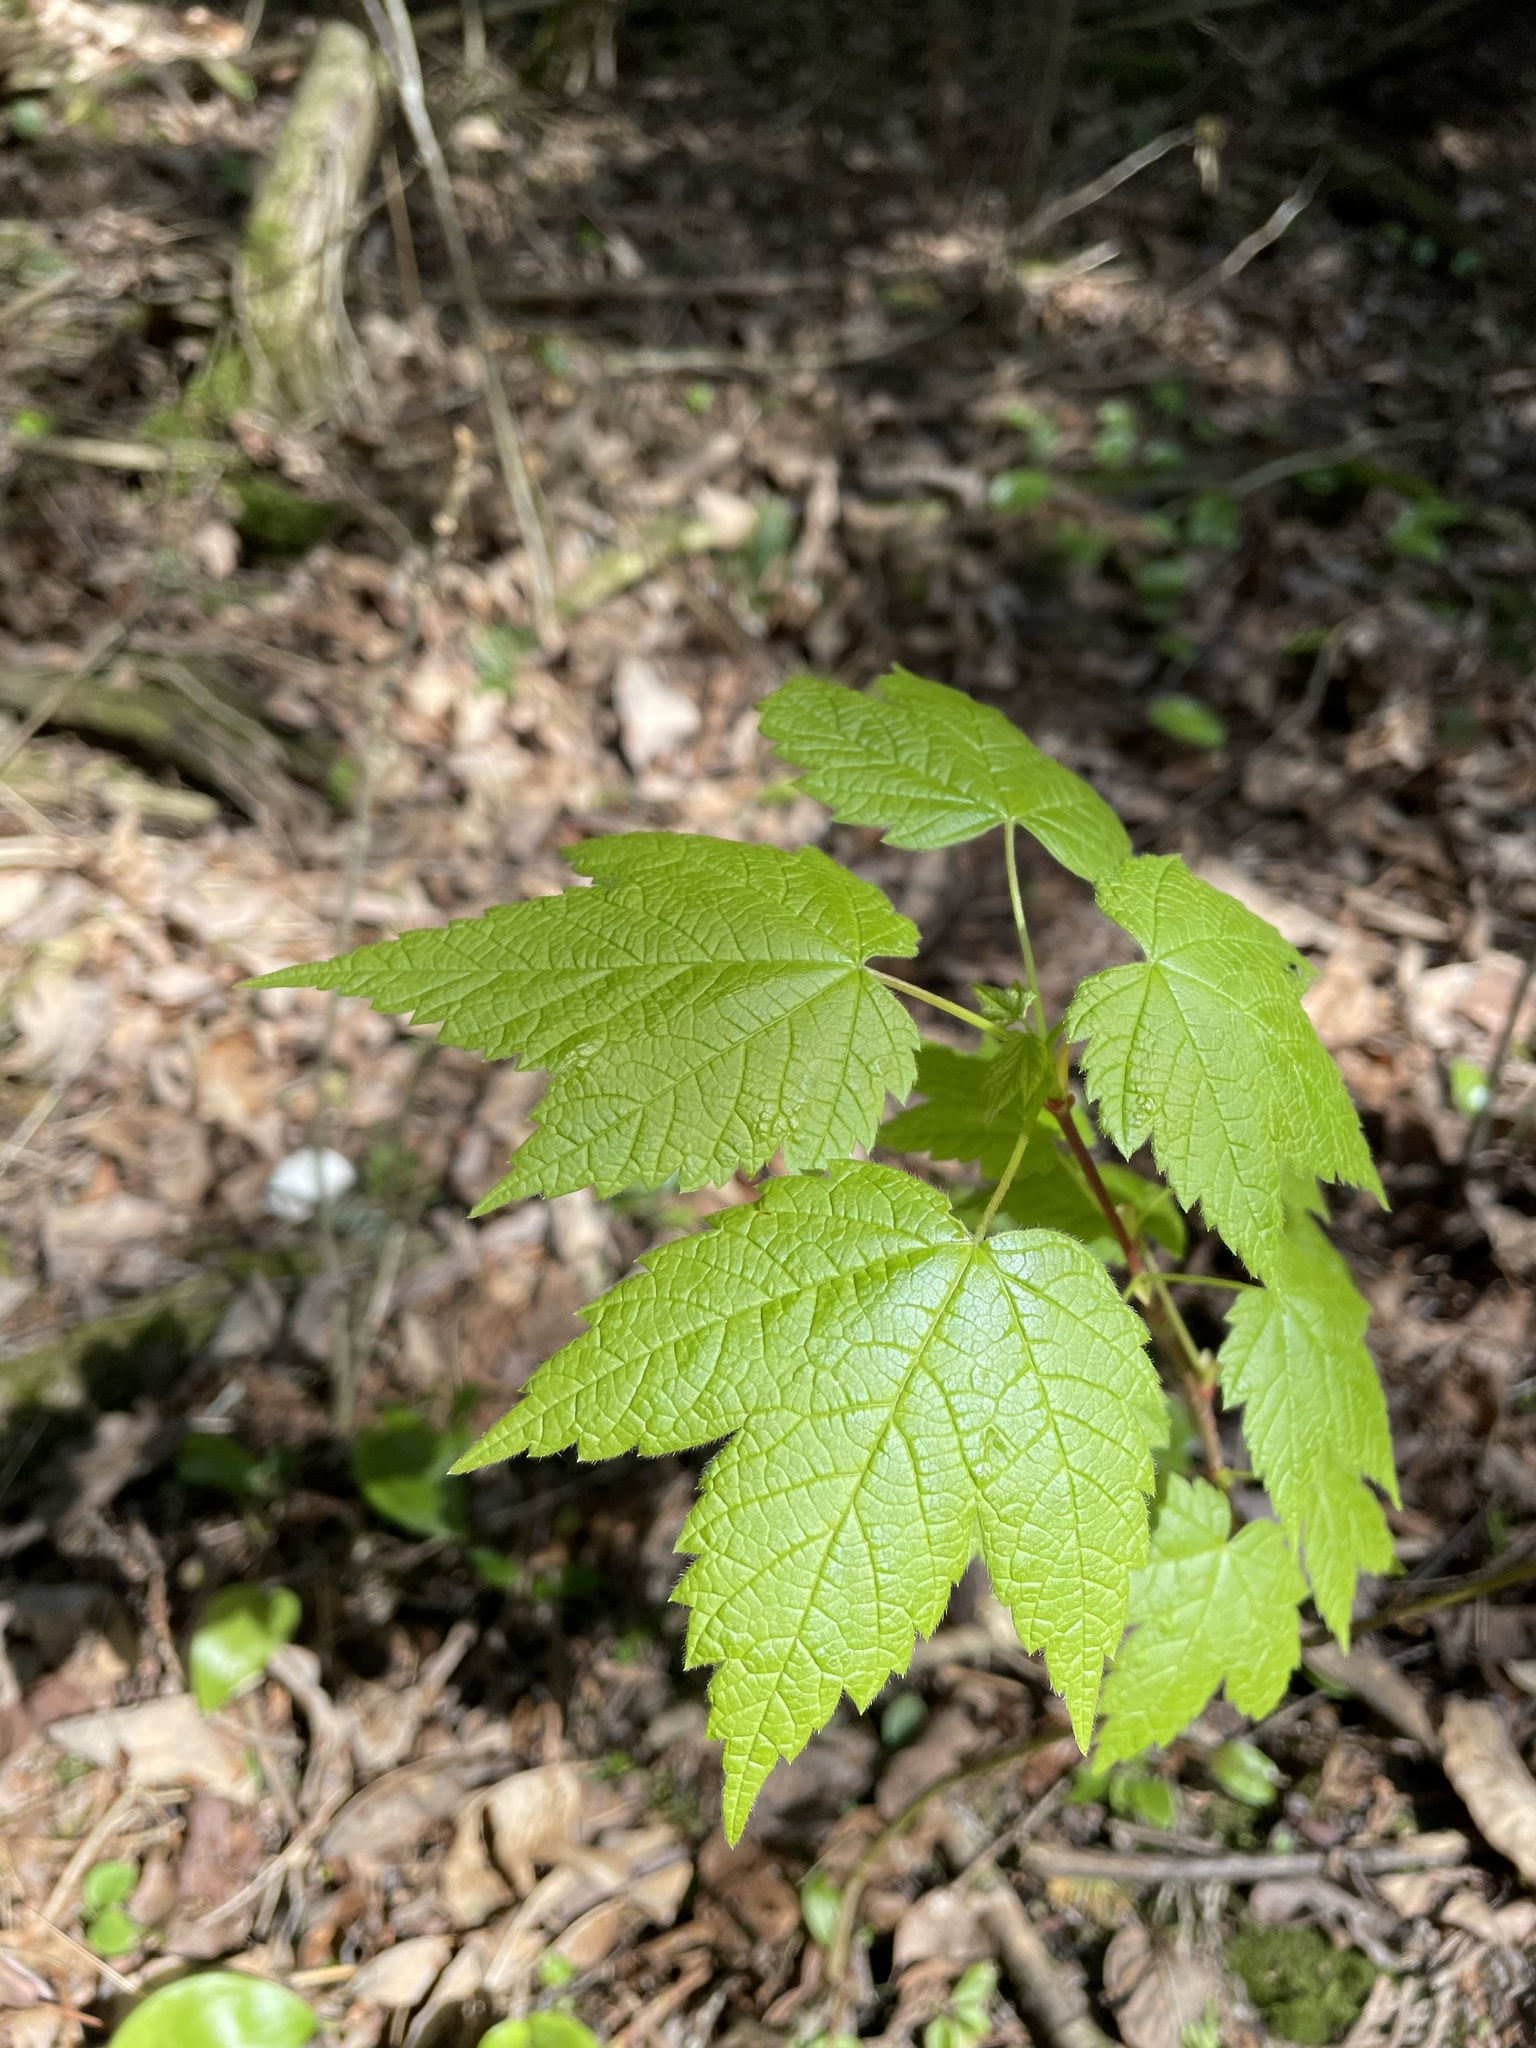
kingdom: Plantae
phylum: Tracheophyta
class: Magnoliopsida
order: Sapindales
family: Sapindaceae
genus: Acer
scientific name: Acer spicatum
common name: Mountain maple
